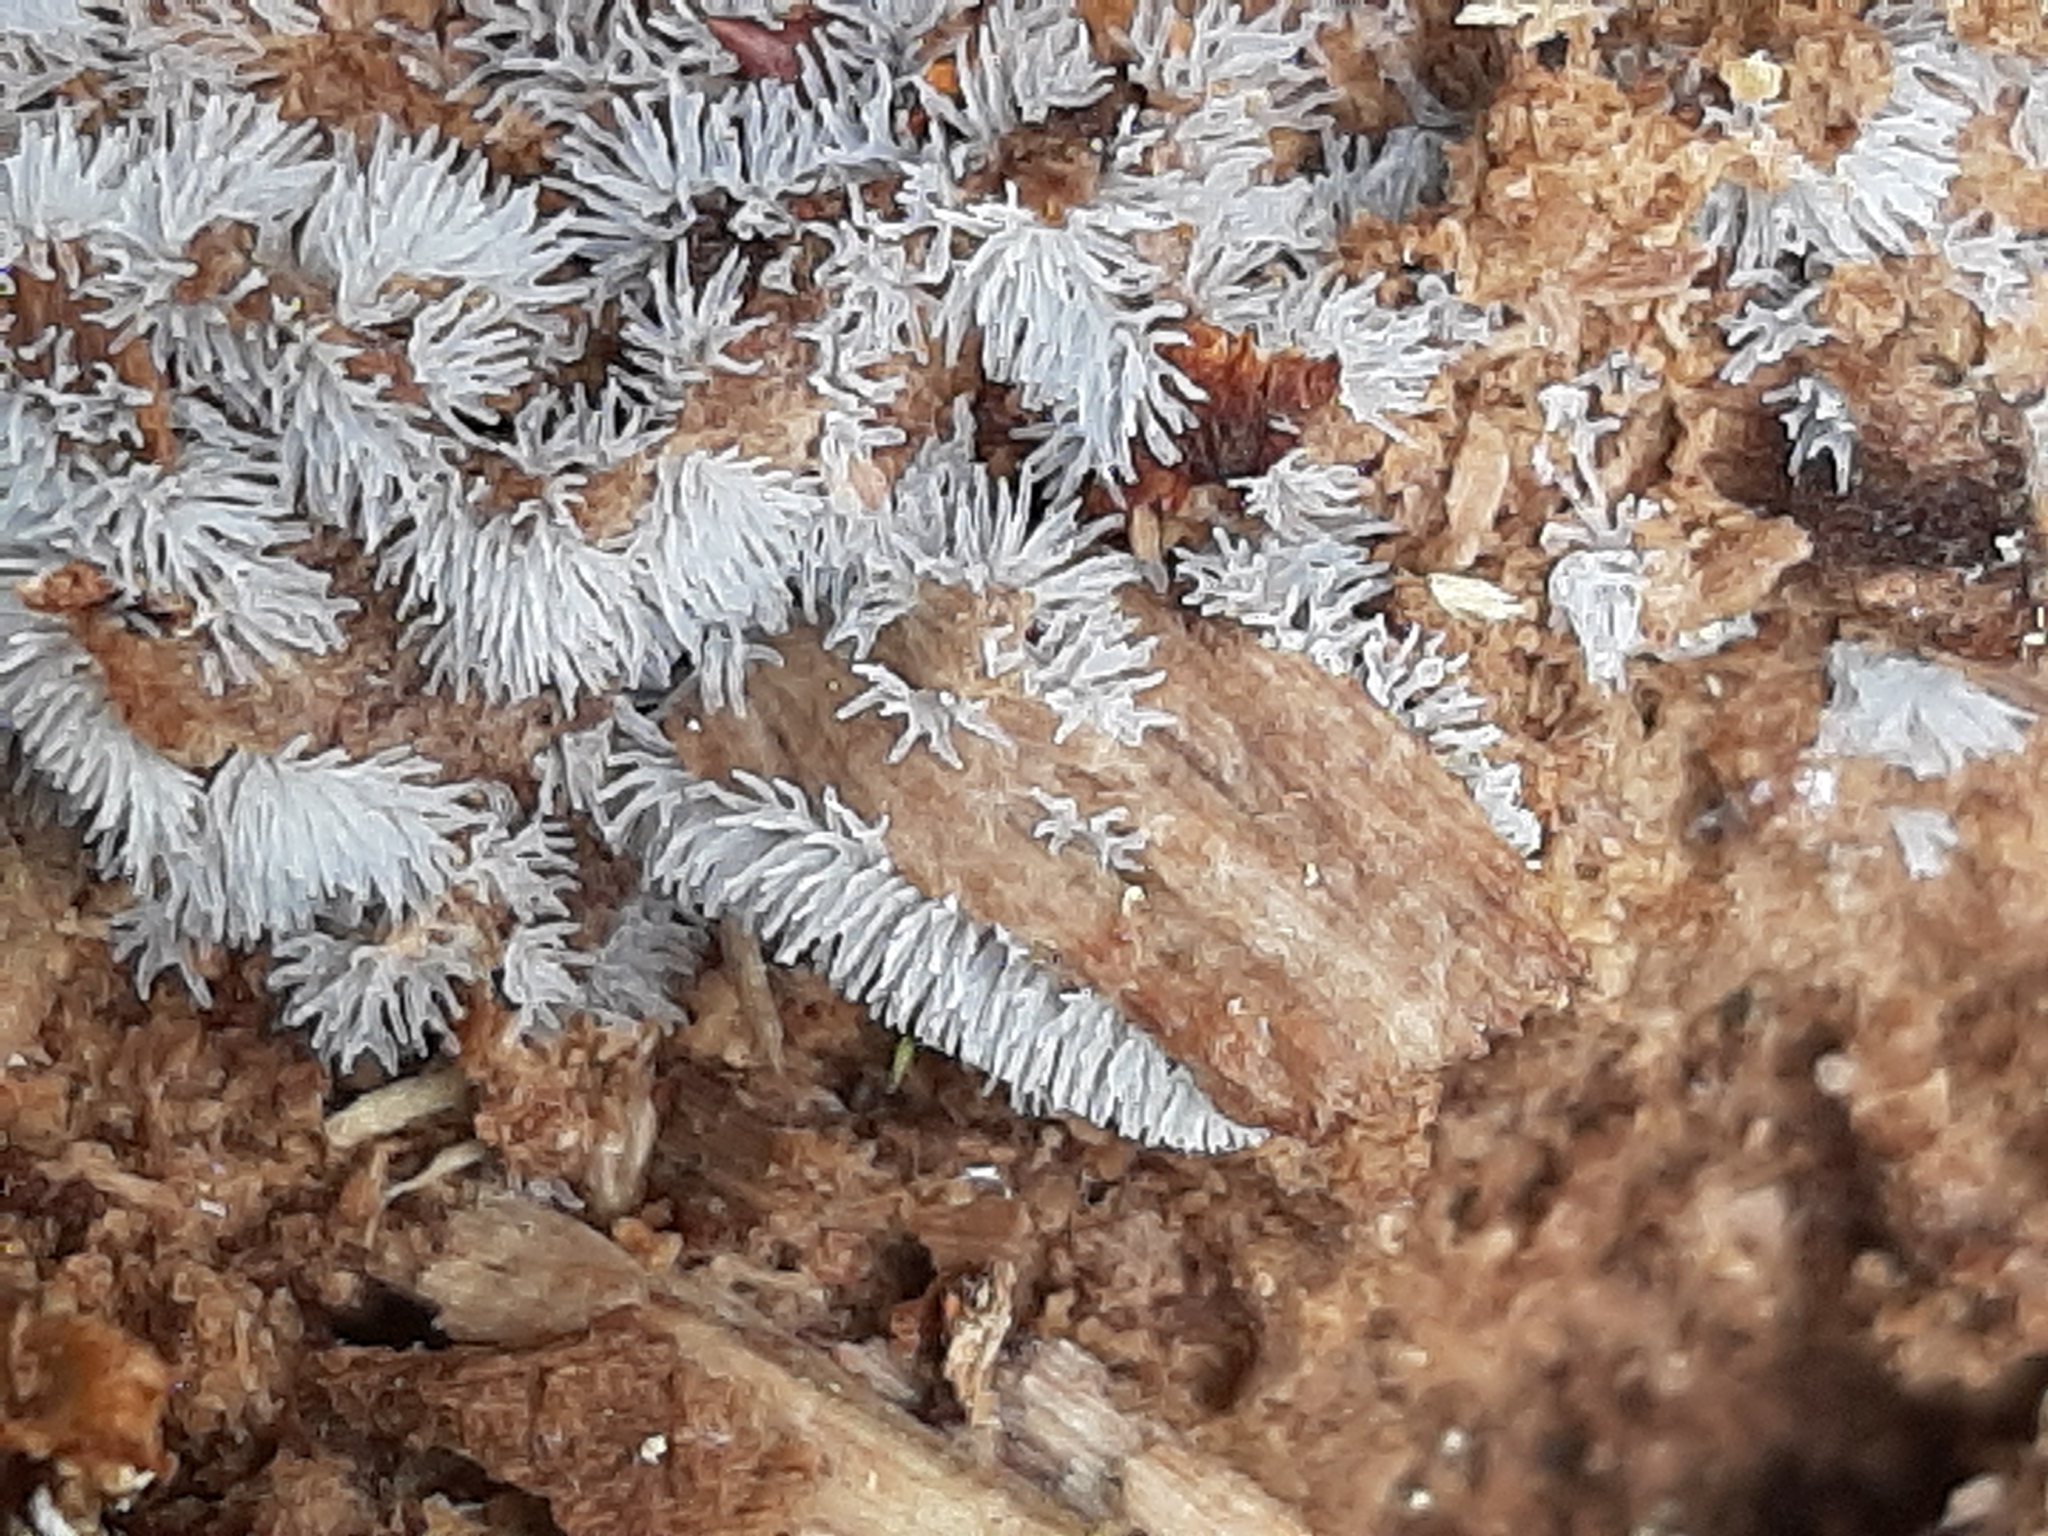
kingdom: Protozoa
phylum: Mycetozoa
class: Protosteliomycetes
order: Ceratiomyxales
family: Ceratiomyxaceae
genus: Ceratiomyxa
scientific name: Ceratiomyxa fruticulosa
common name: Honeycomb coral slime mold
